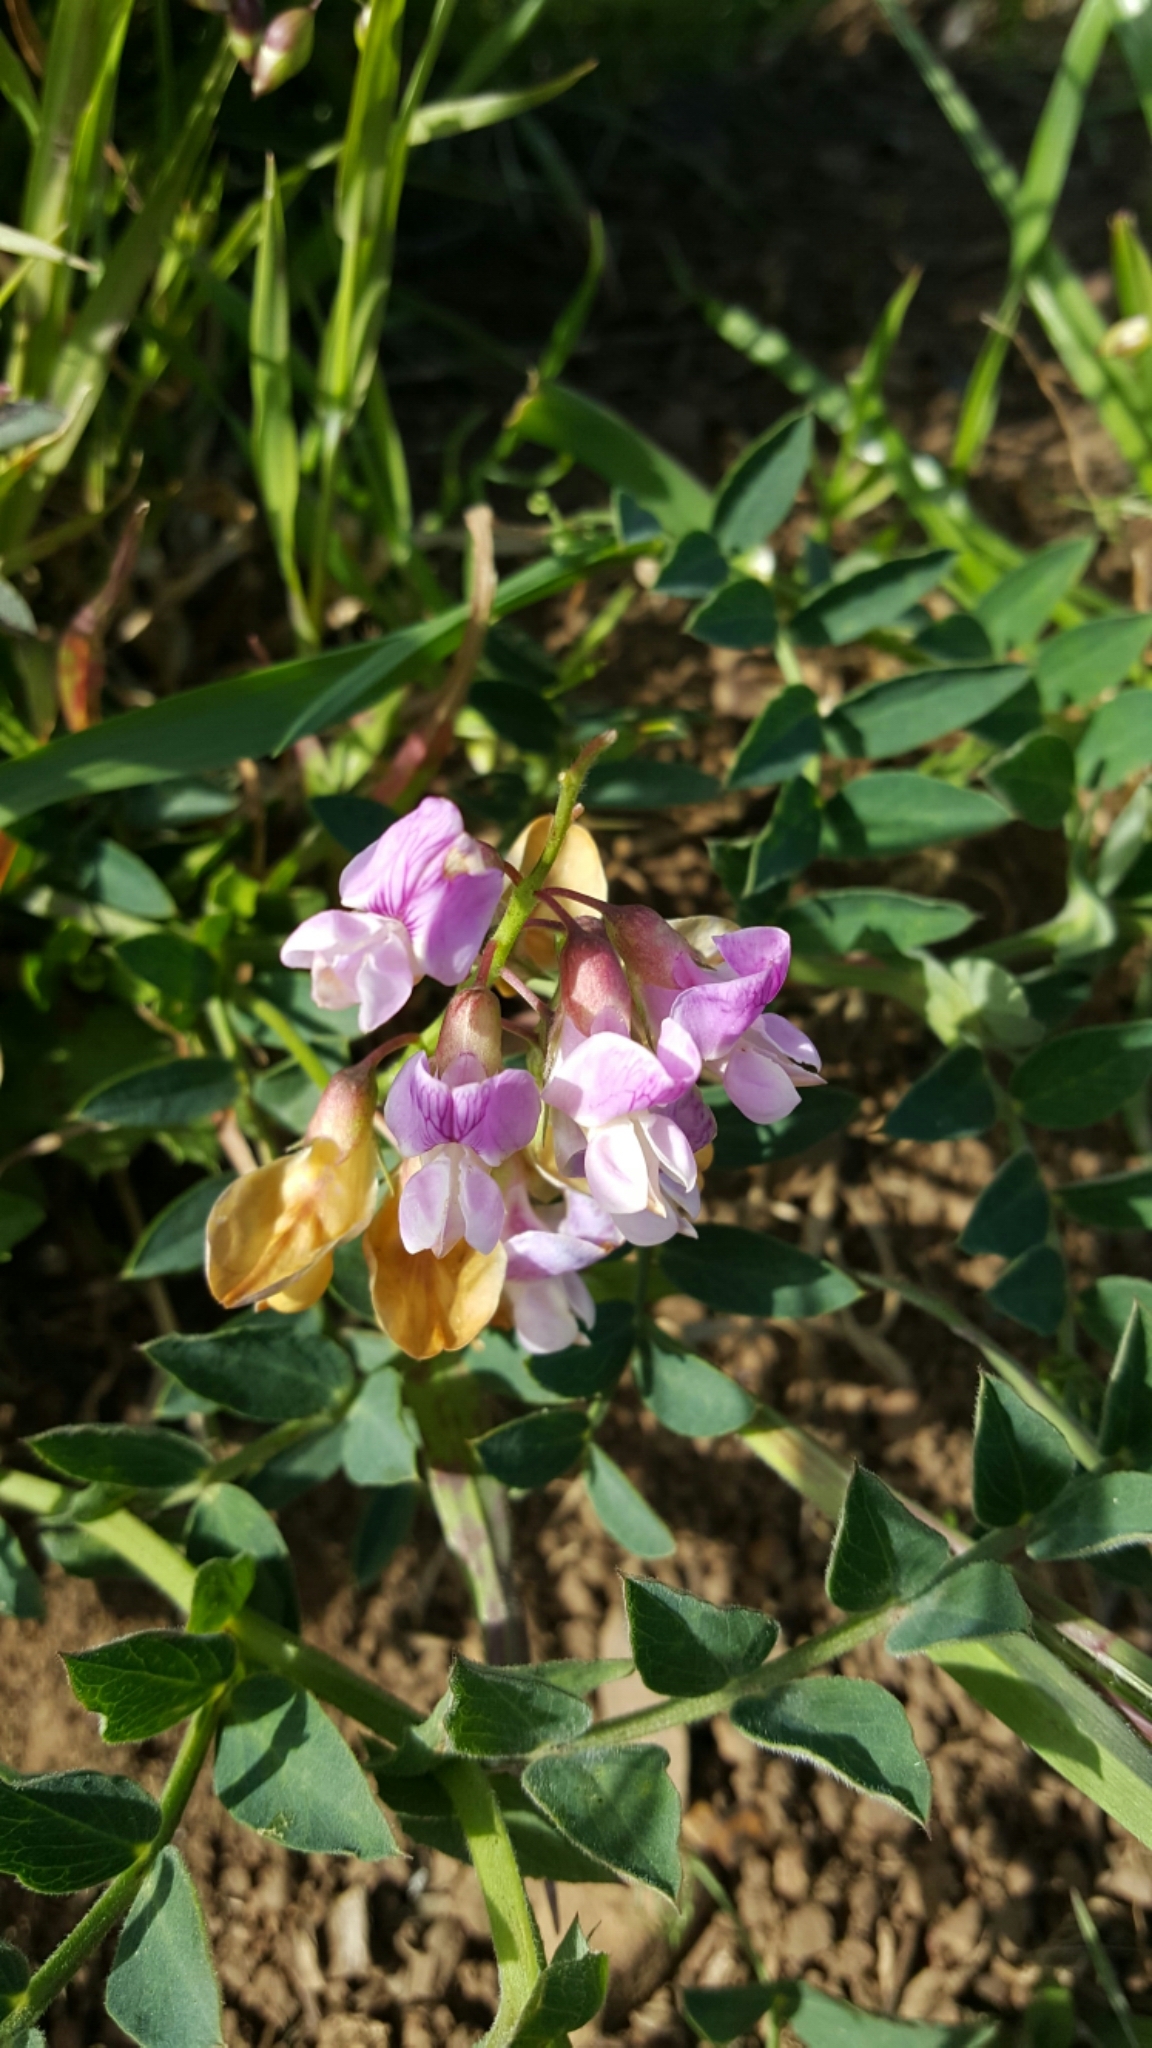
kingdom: Plantae
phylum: Tracheophyta
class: Magnoliopsida
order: Fabales
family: Fabaceae
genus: Lathyrus
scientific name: Lathyrus vestitus
